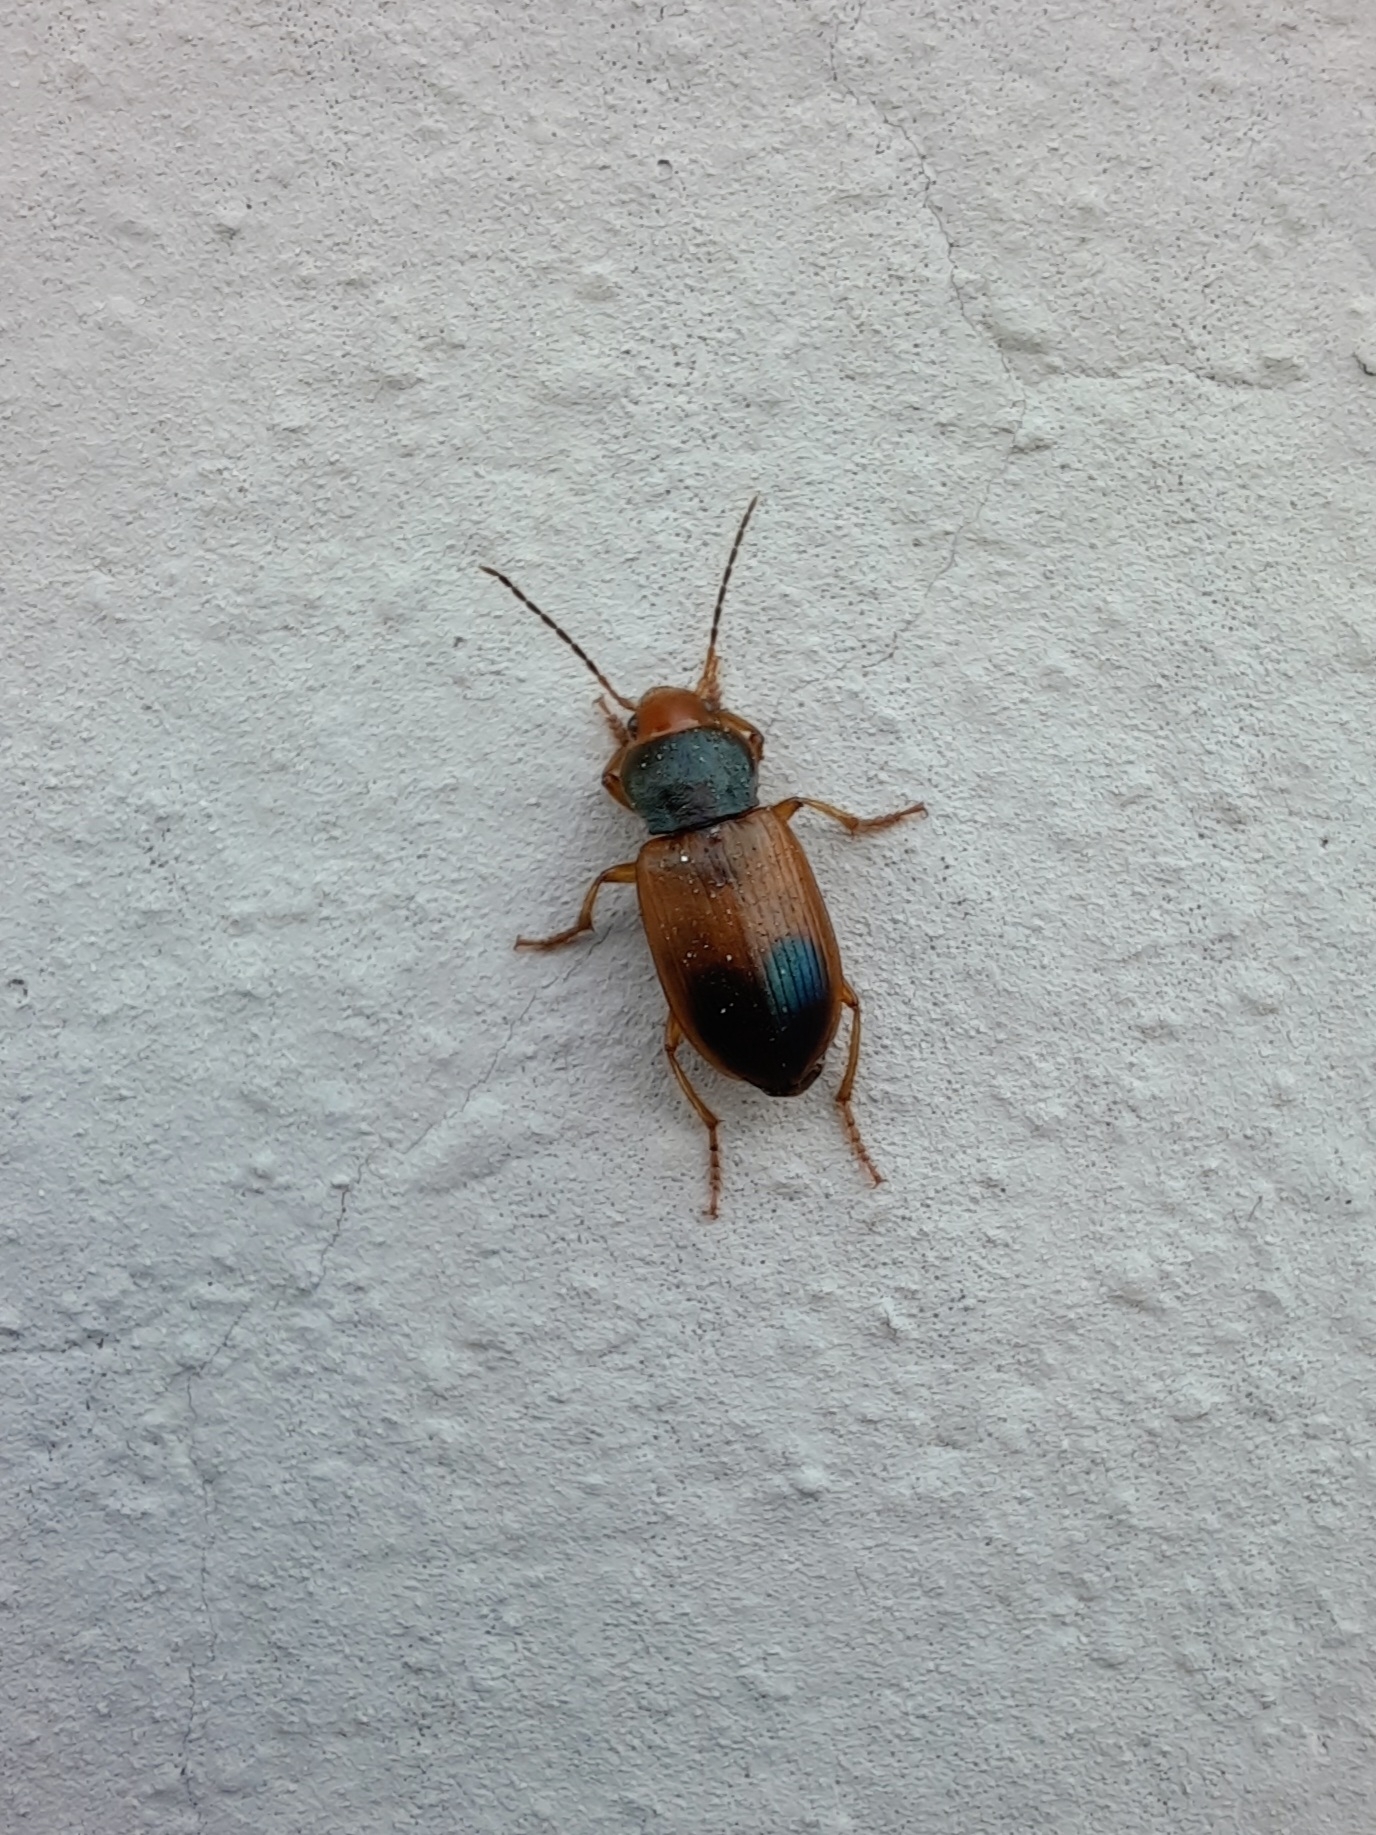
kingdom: Animalia
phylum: Arthropoda
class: Insecta
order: Coleoptera
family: Carabidae
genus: Diachromus
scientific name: Diachromus germanus
